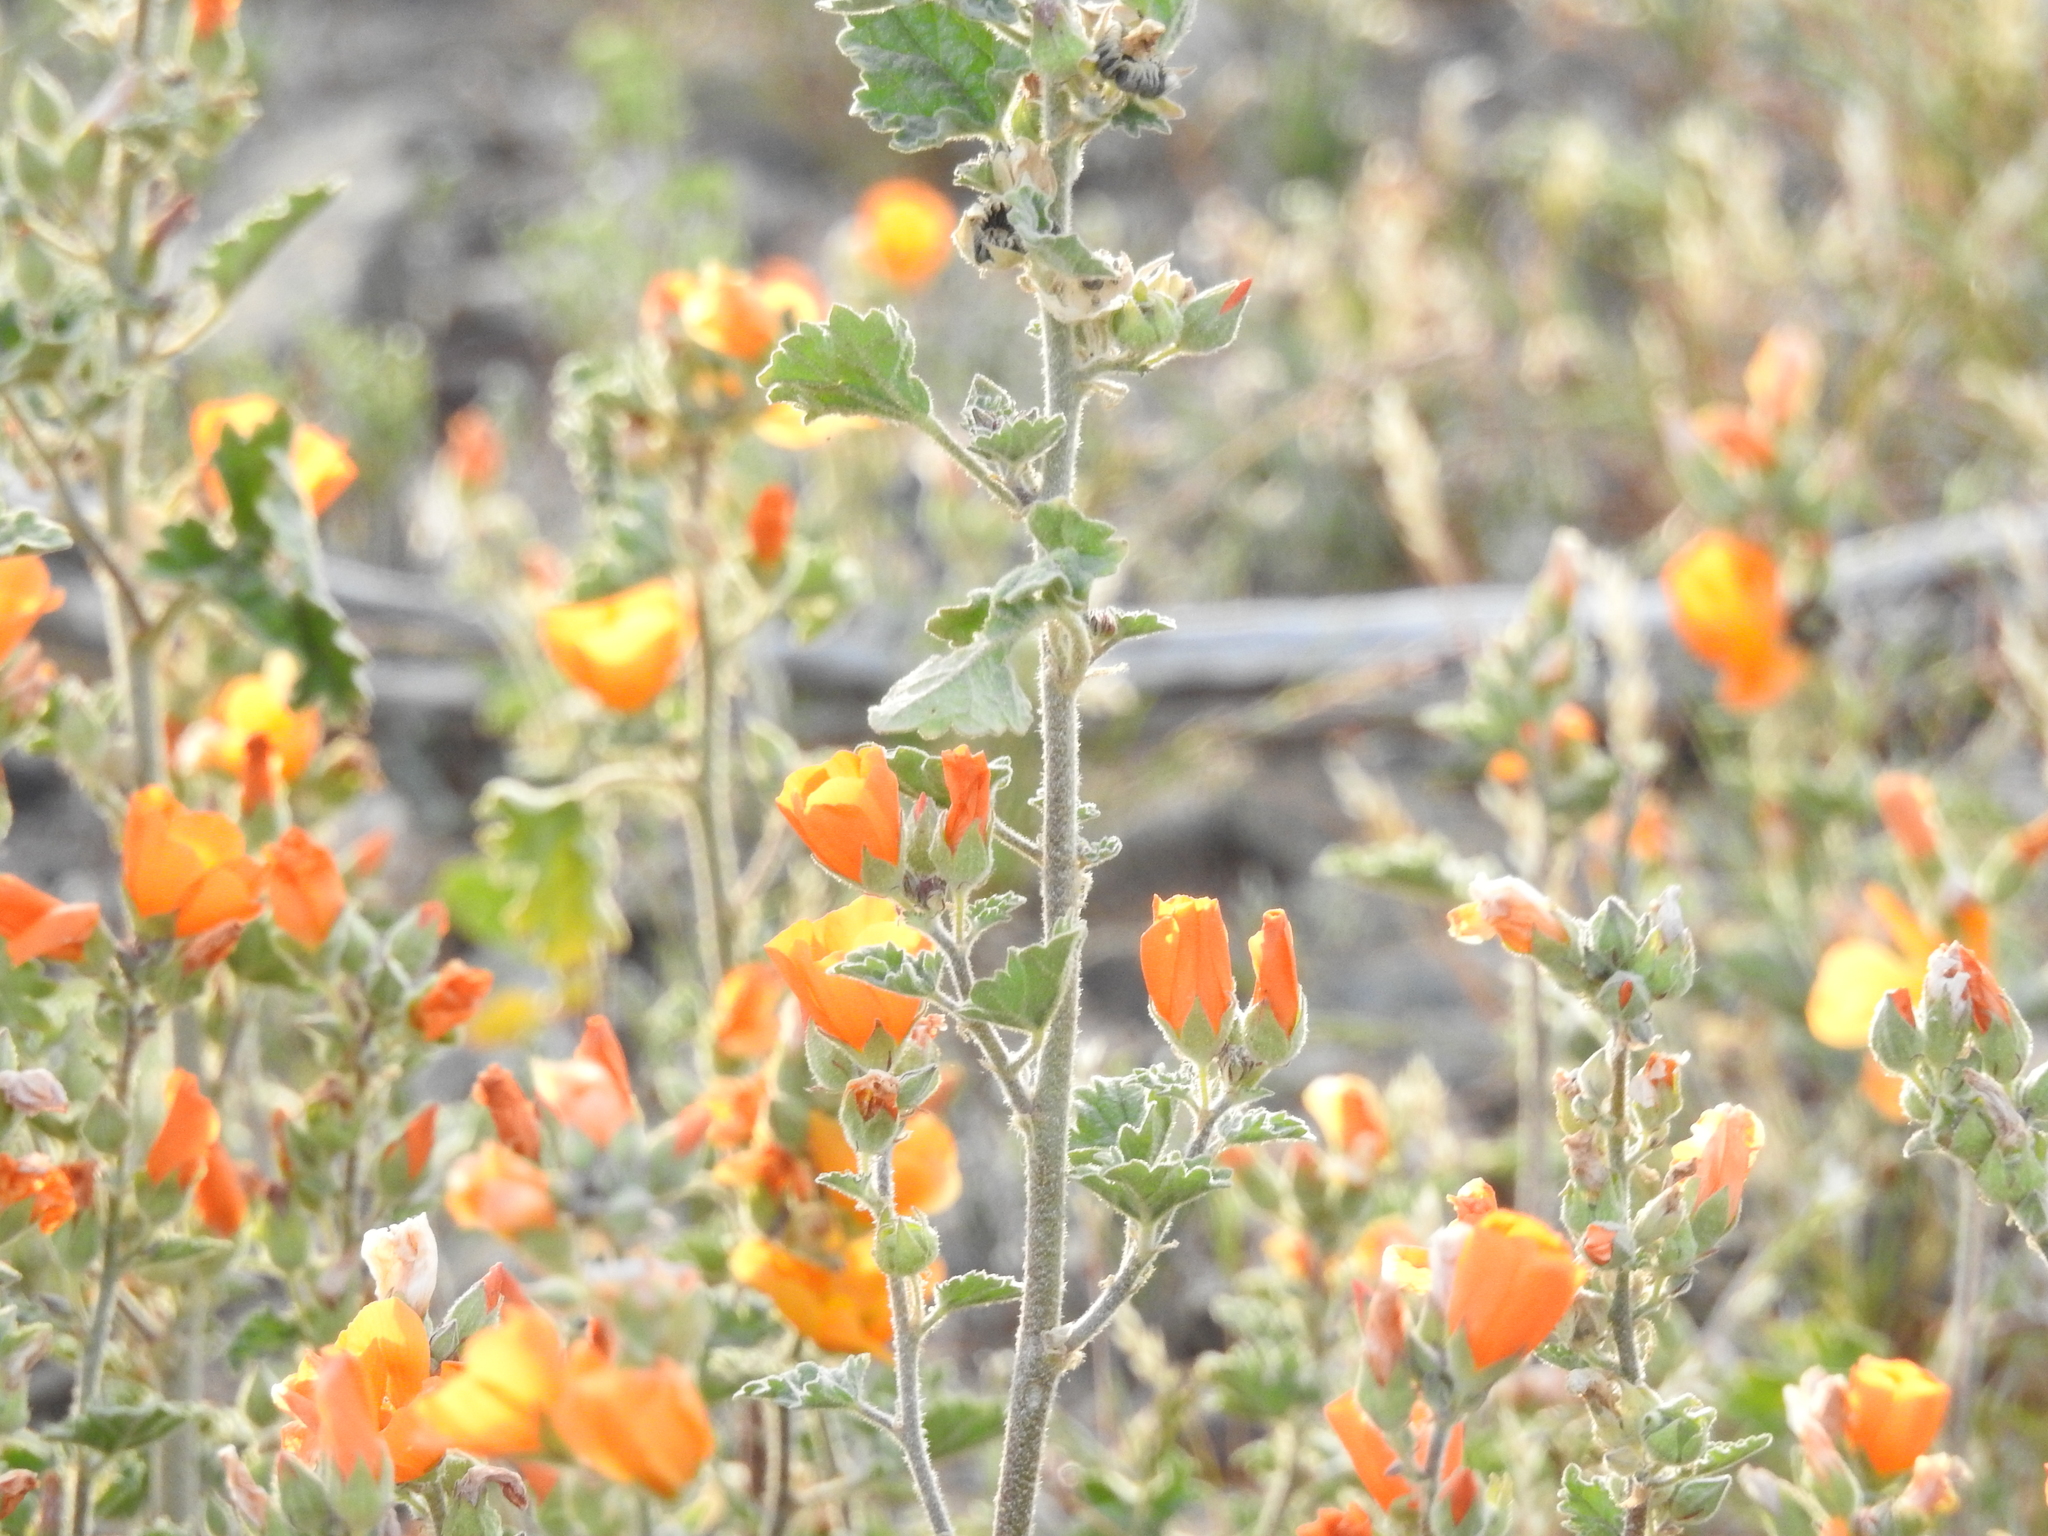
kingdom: Plantae
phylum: Tracheophyta
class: Magnoliopsida
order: Malvales
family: Malvaceae
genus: Sphaeralcea
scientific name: Sphaeralcea coulteri
